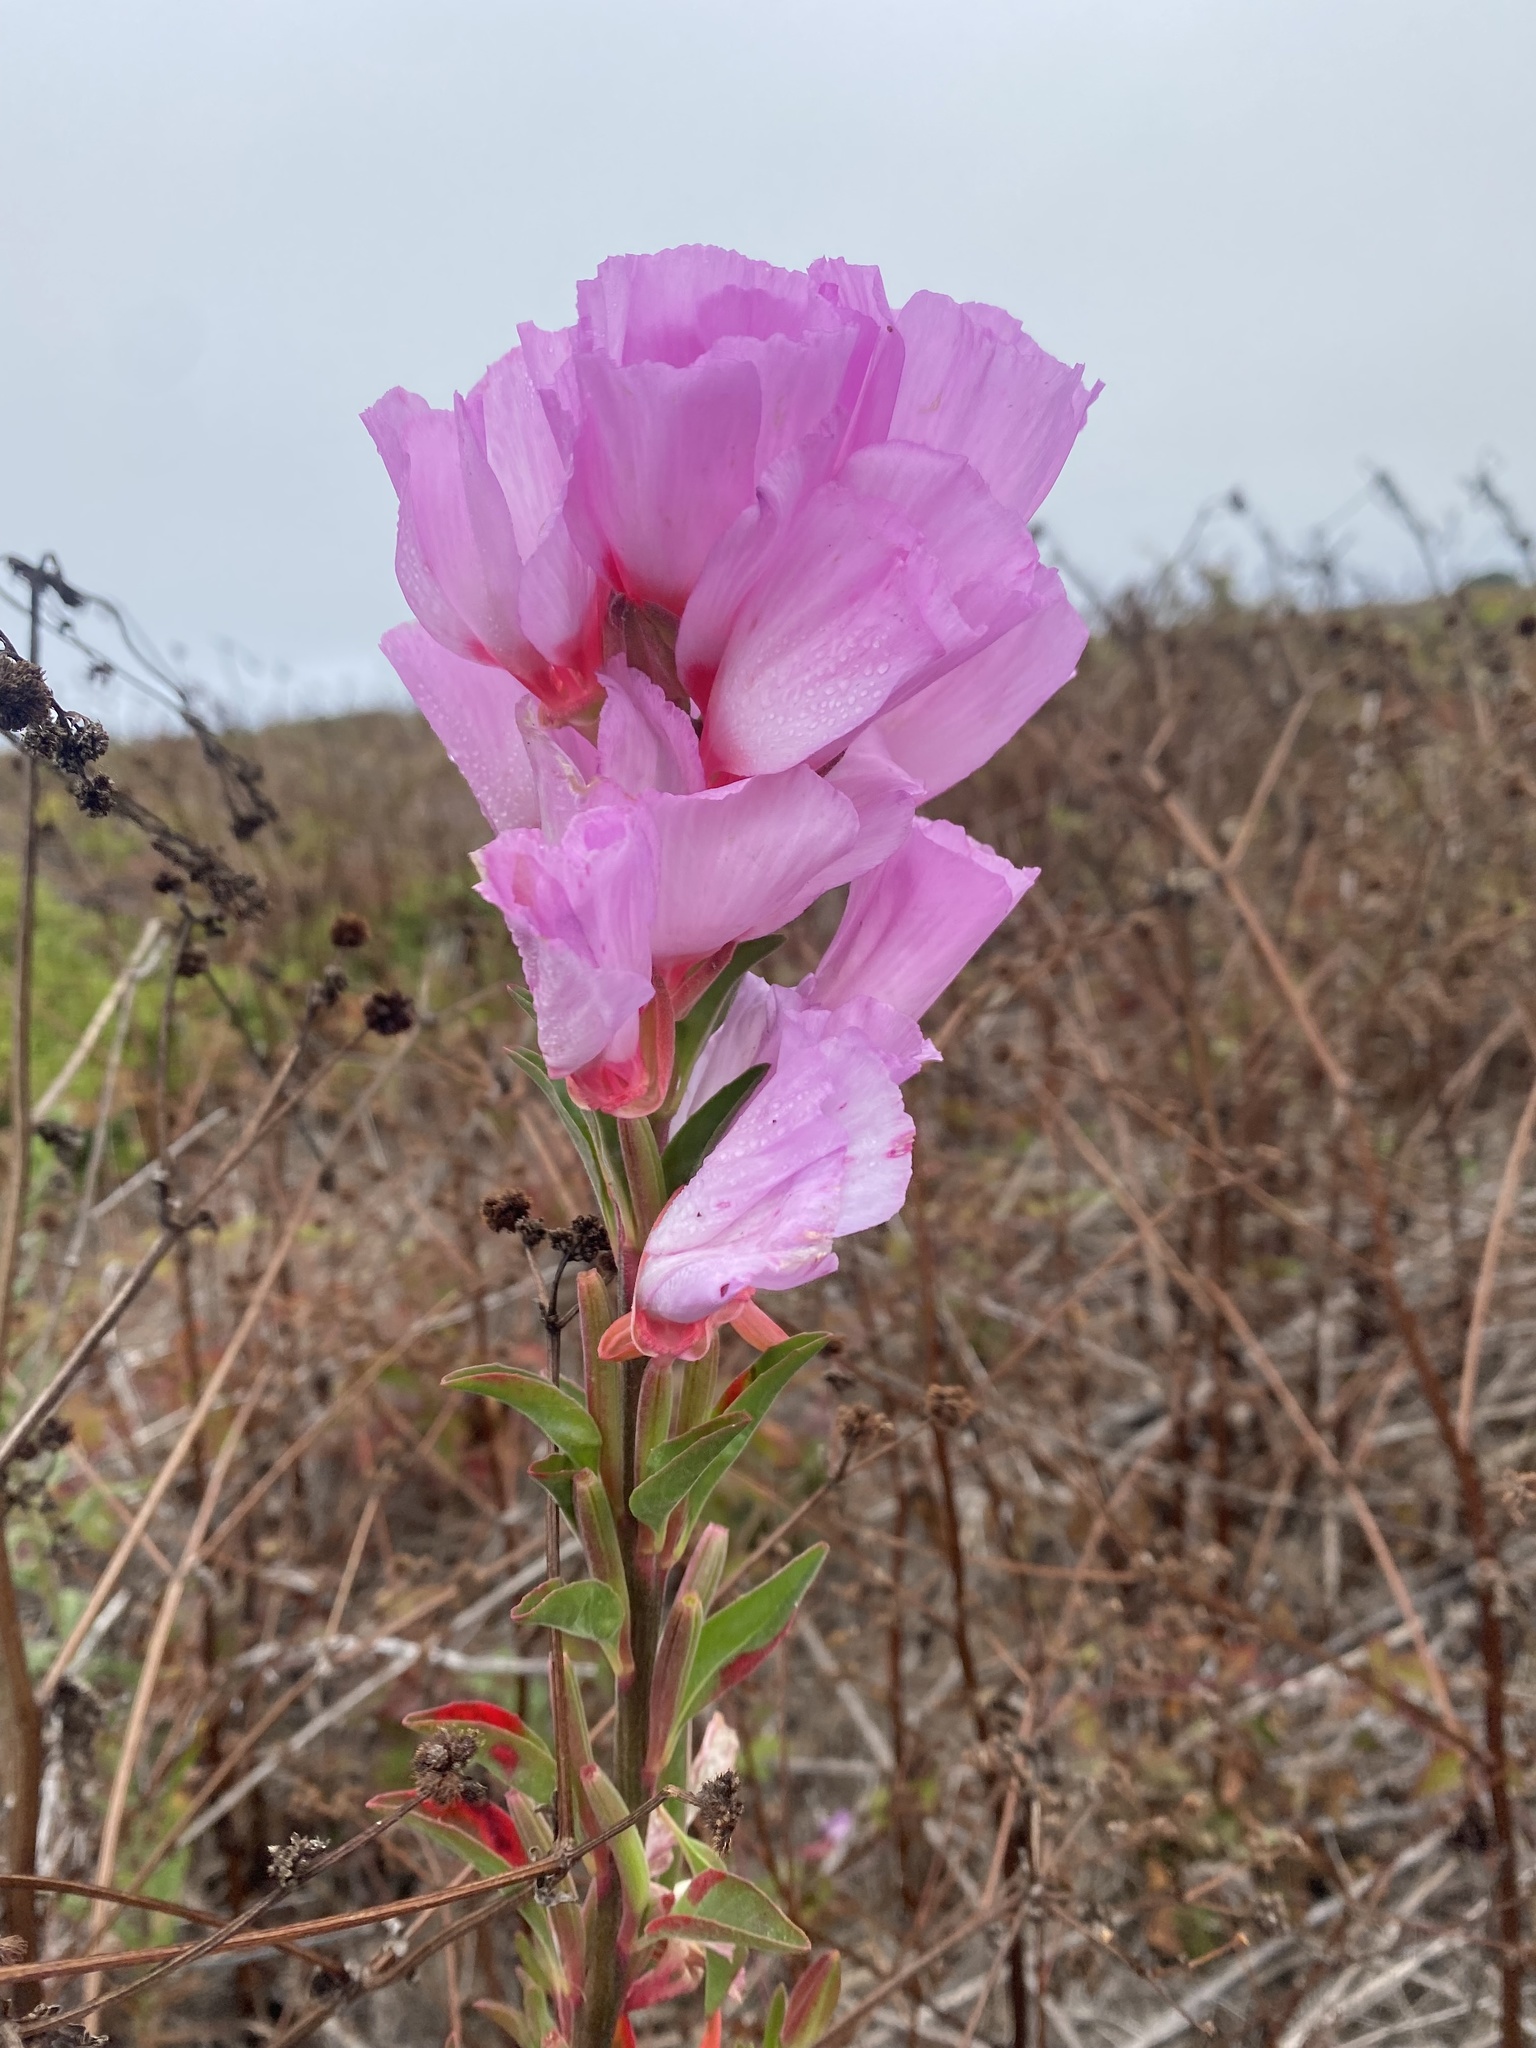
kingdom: Plantae
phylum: Tracheophyta
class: Magnoliopsida
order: Myrtales
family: Onagraceae
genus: Clarkia
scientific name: Clarkia rubicunda
